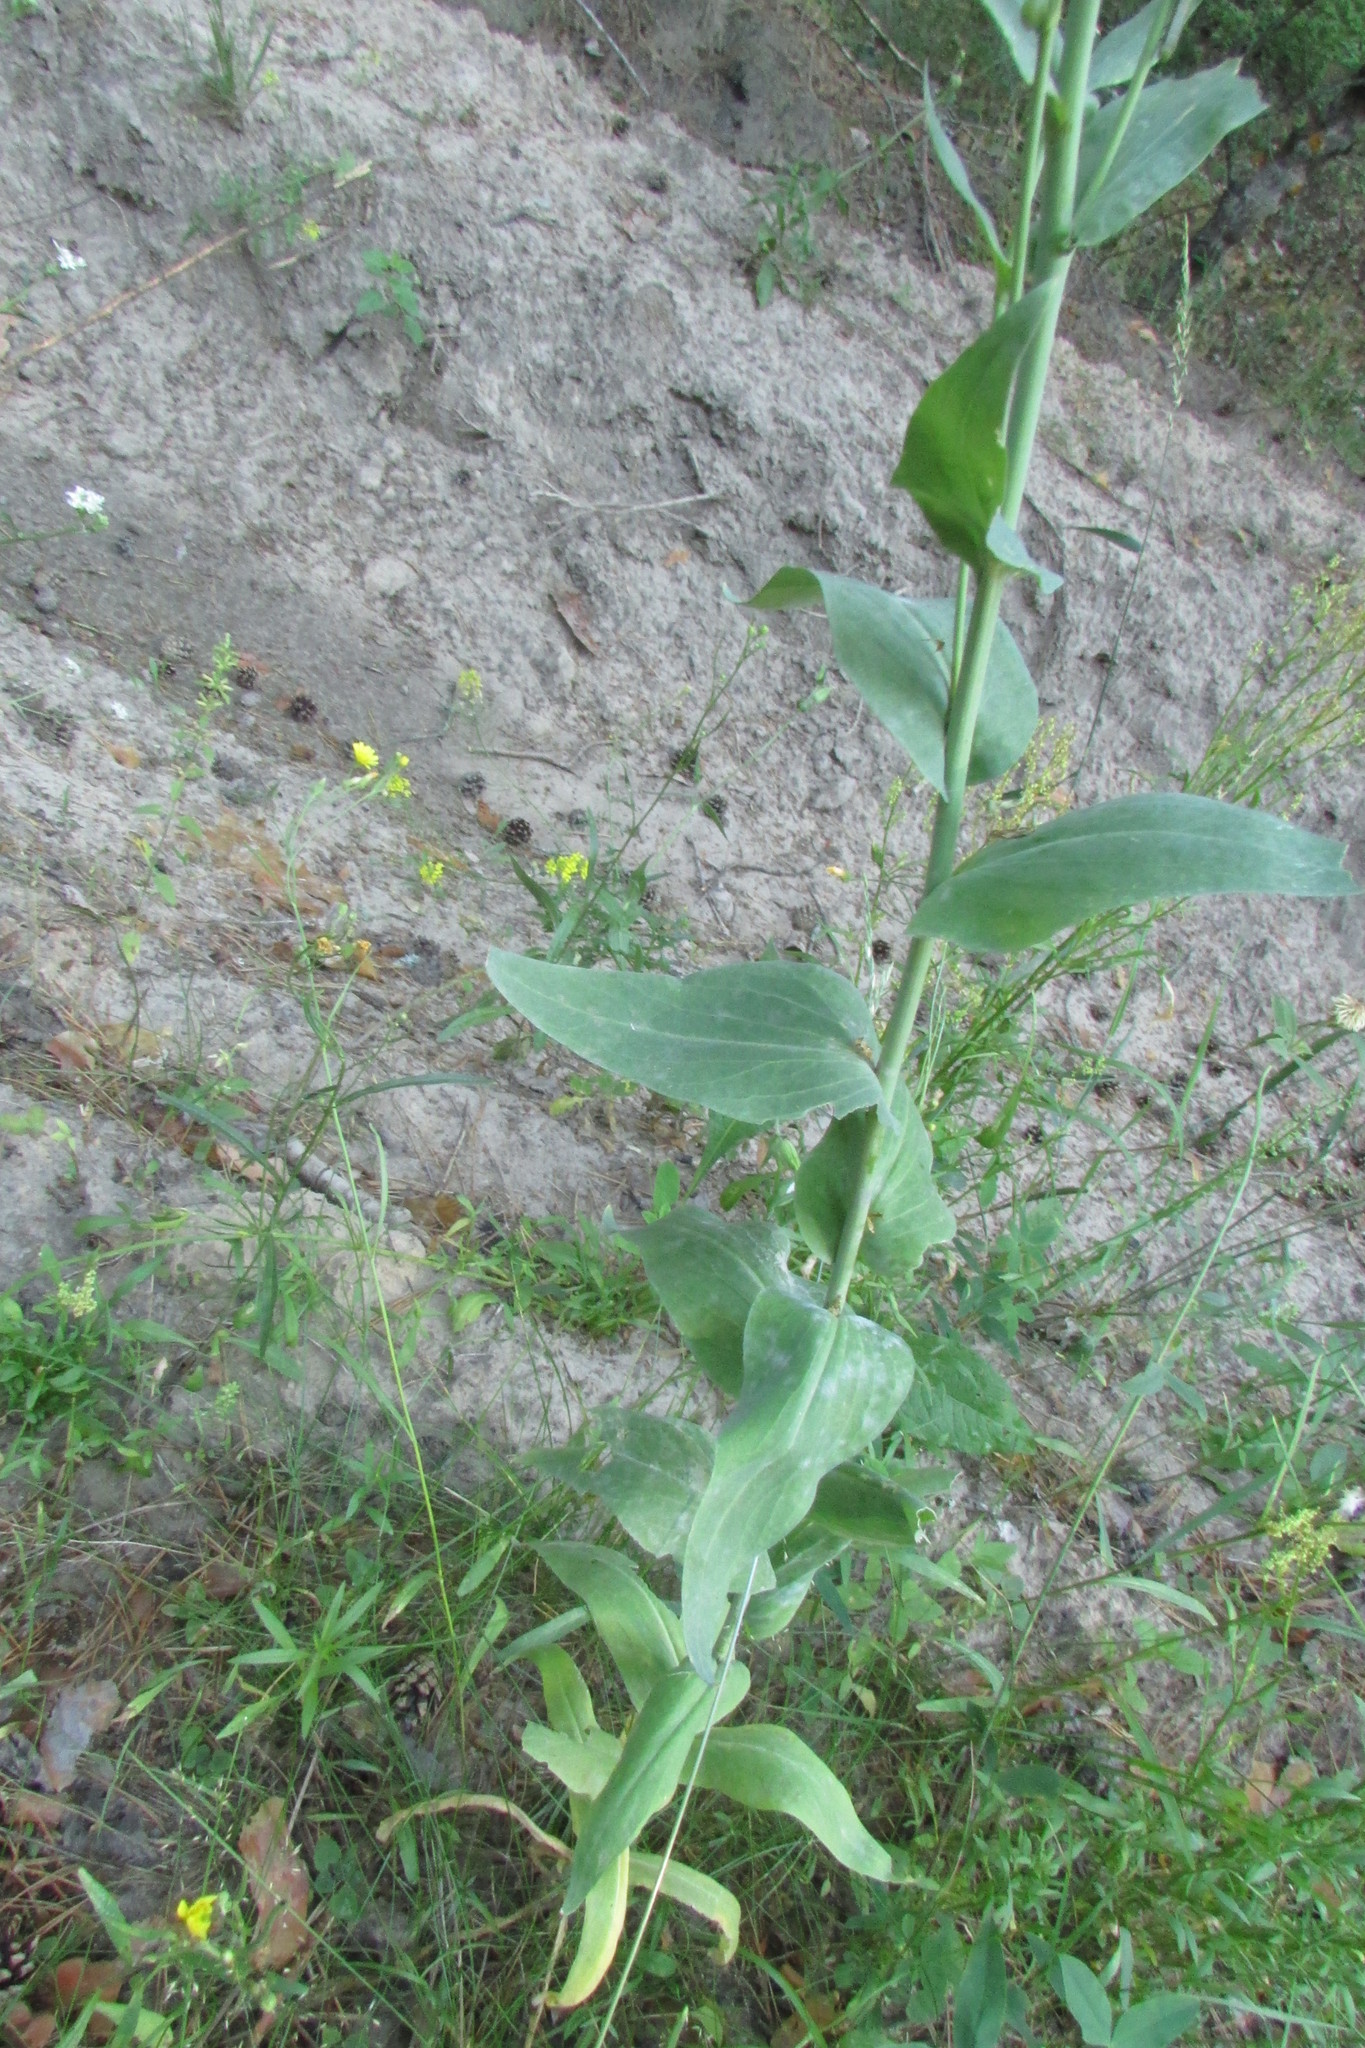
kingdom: Plantae
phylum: Tracheophyta
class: Magnoliopsida
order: Brassicales
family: Brassicaceae
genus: Turritis
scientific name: Turritis glabra
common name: Tower rockcress
